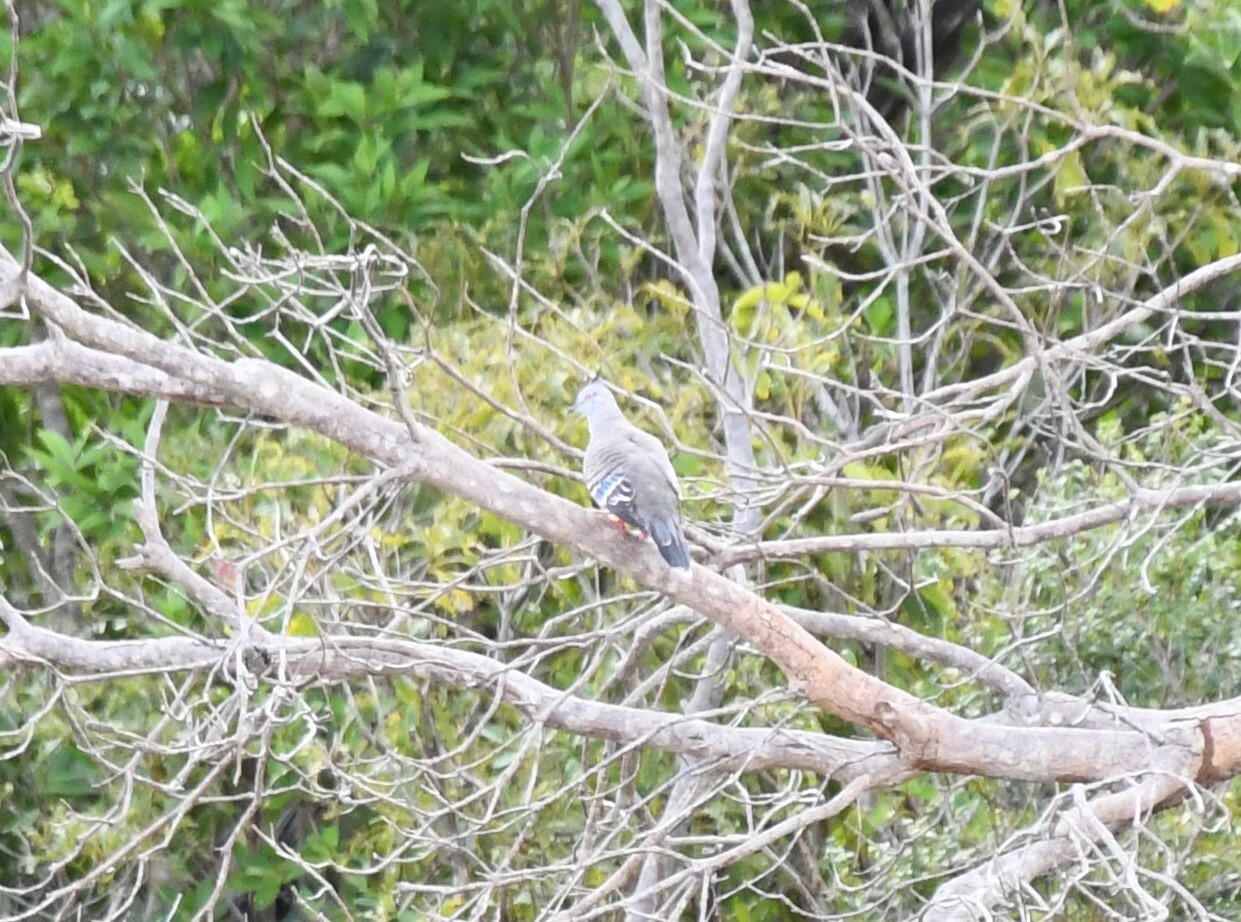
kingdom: Animalia
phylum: Chordata
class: Aves
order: Columbiformes
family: Columbidae
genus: Ocyphaps
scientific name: Ocyphaps lophotes
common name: Crested pigeon
